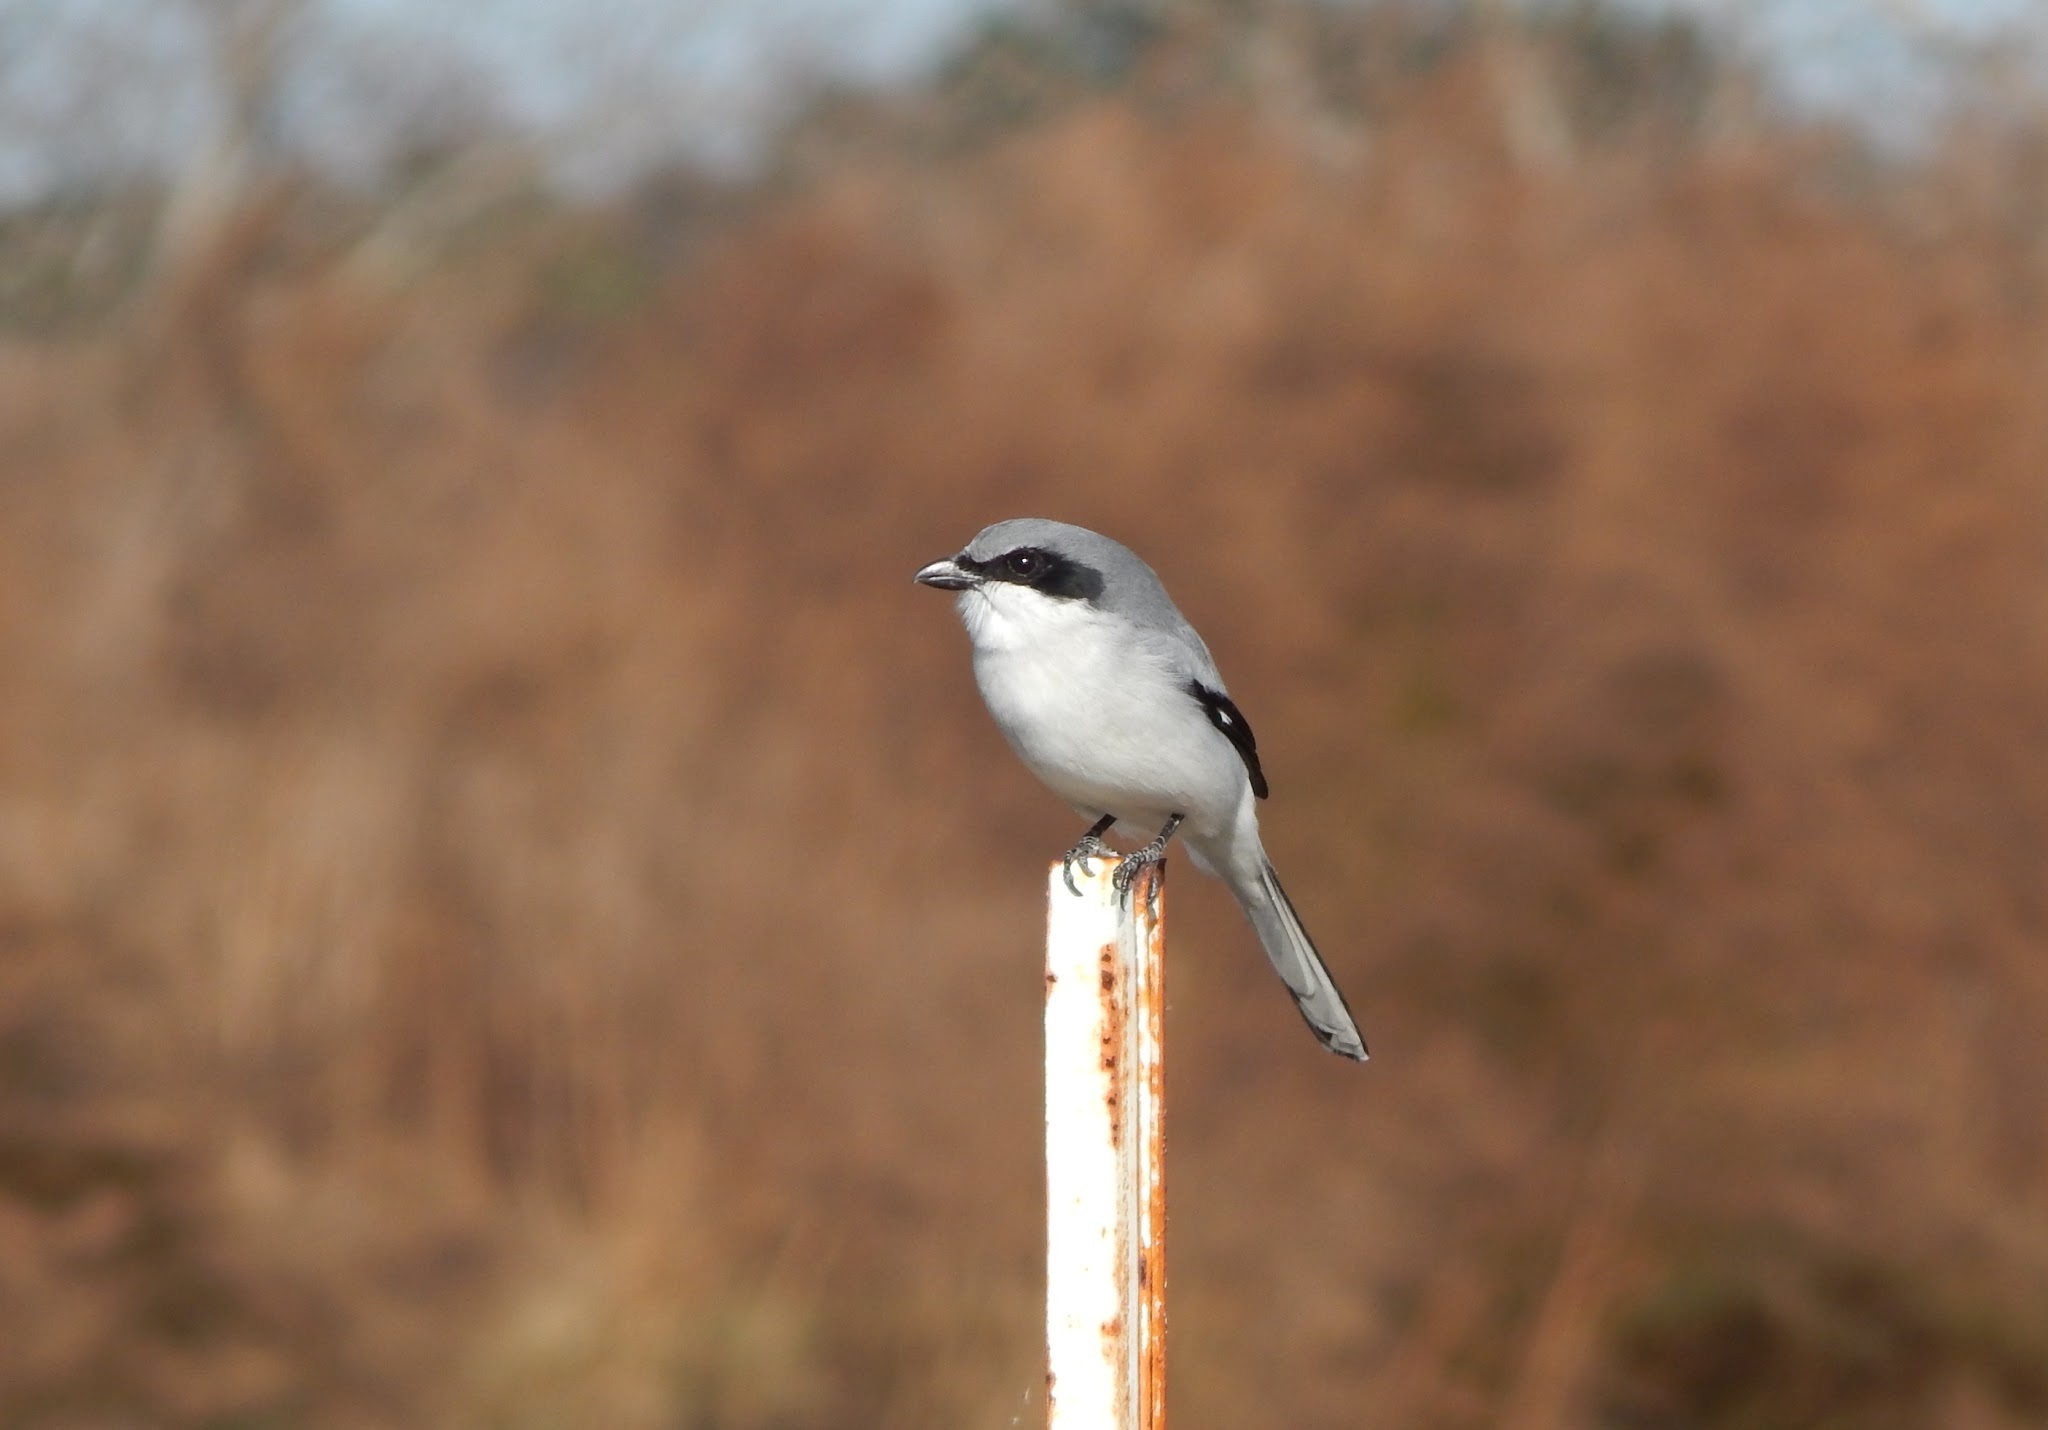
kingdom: Animalia
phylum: Chordata
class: Aves
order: Passeriformes
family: Laniidae
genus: Lanius
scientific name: Lanius ludovicianus
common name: Loggerhead shrike
